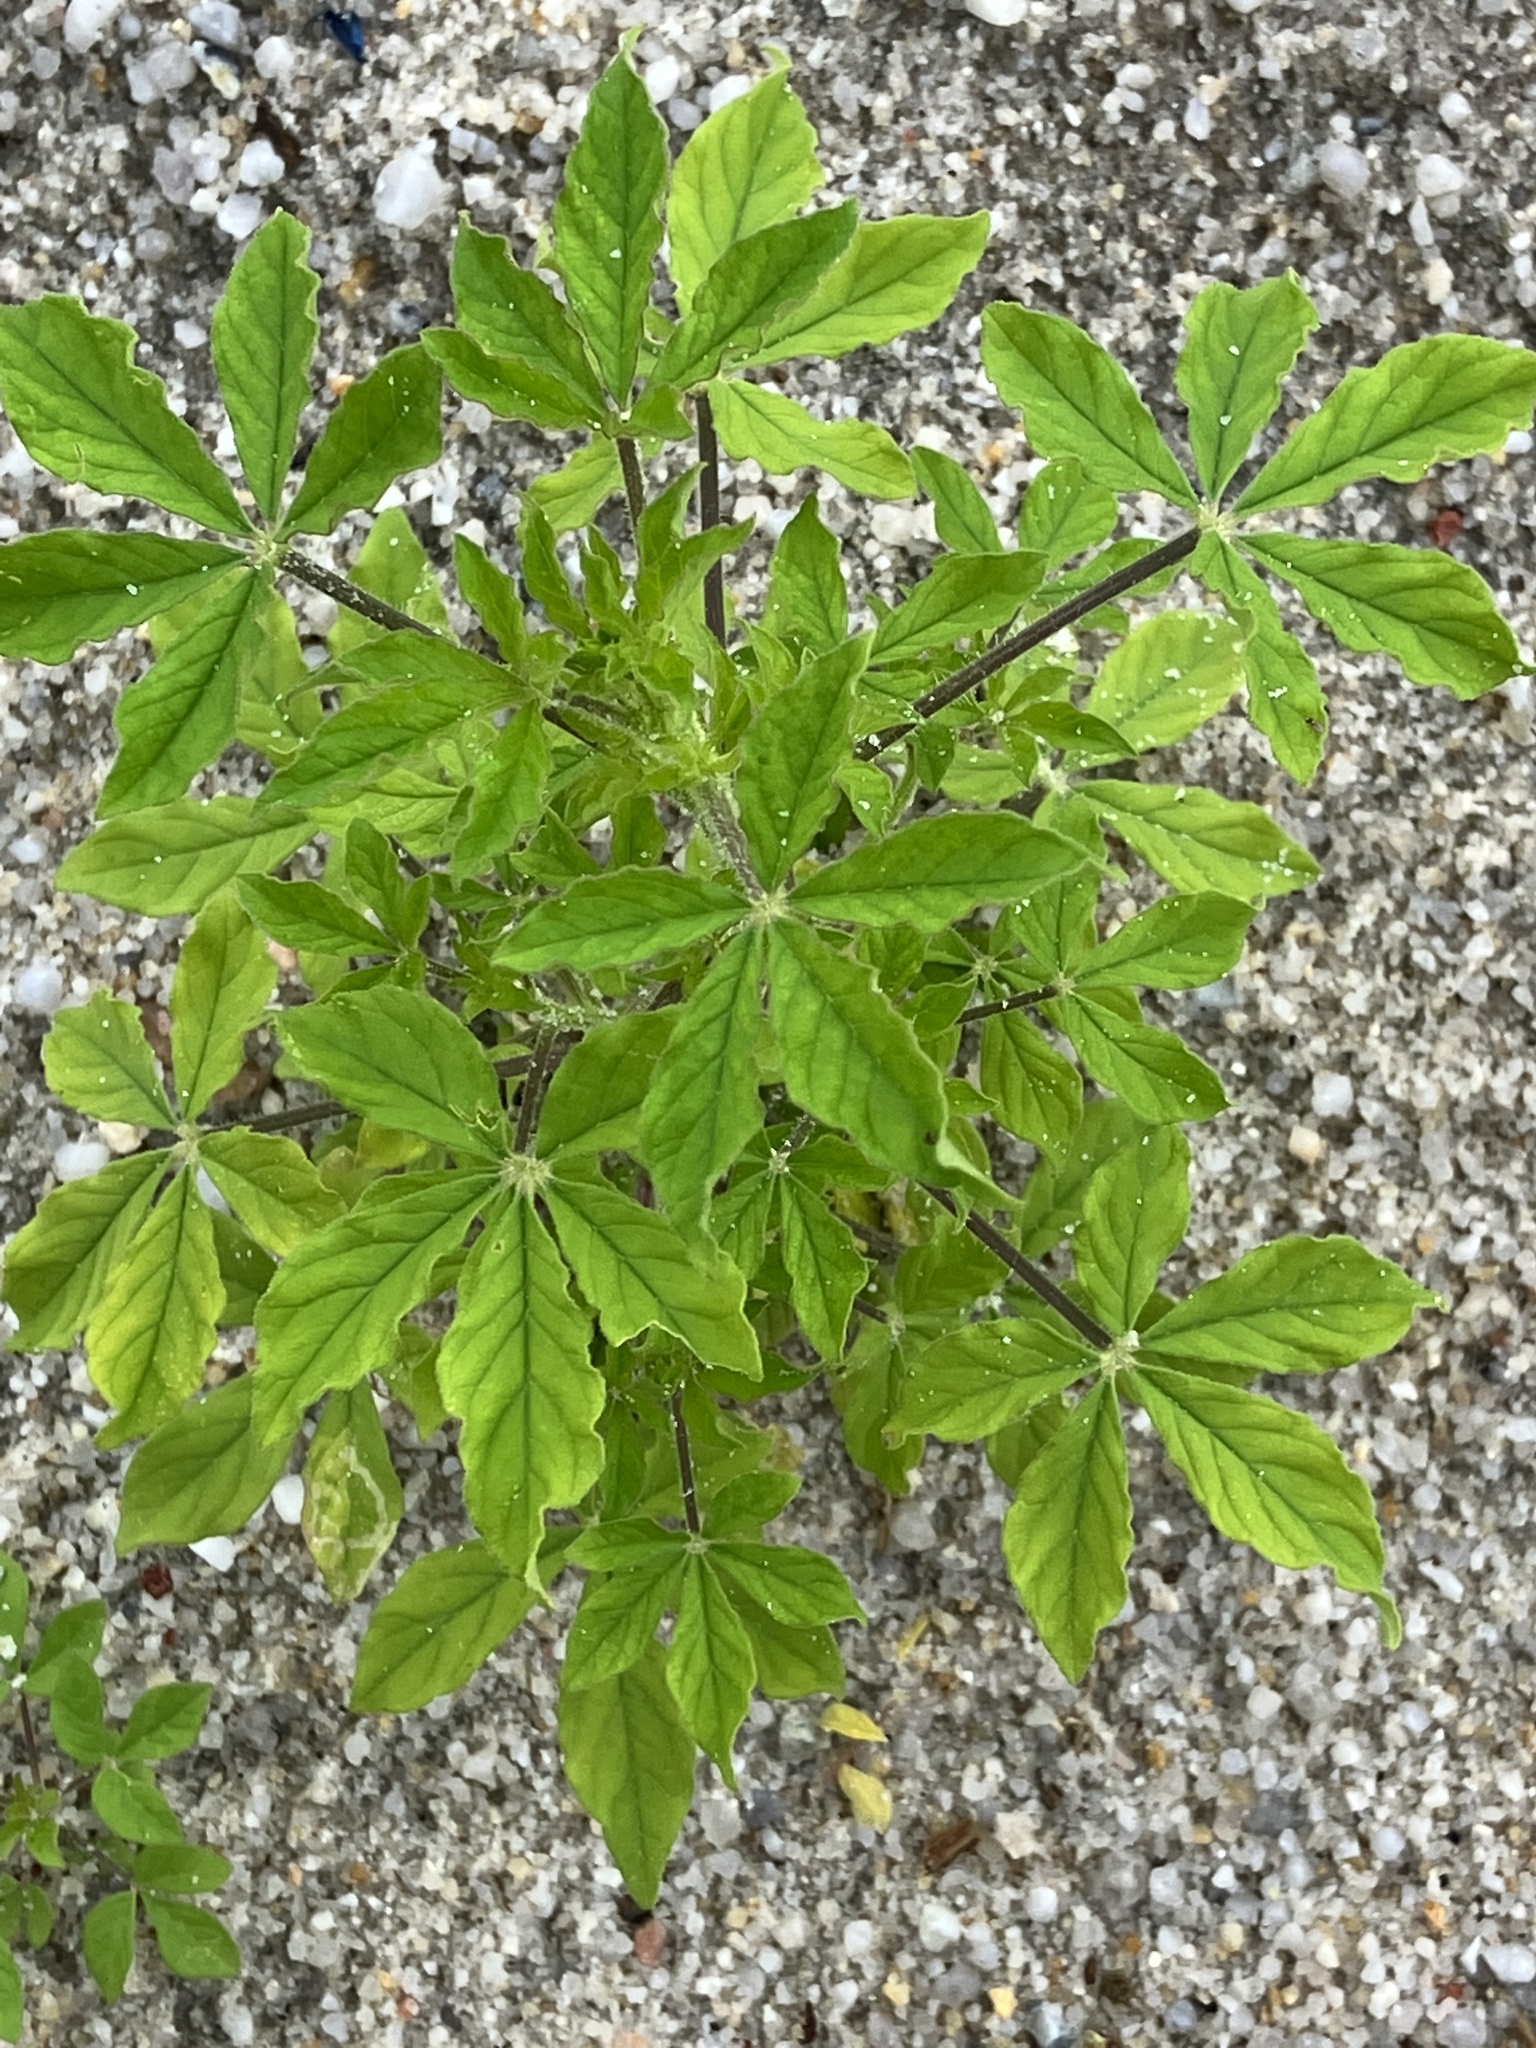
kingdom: Plantae
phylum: Tracheophyta
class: Magnoliopsida
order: Brassicales
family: Cleomaceae
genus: Arivela
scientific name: Arivela viscosa
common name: Asian spiderflower
